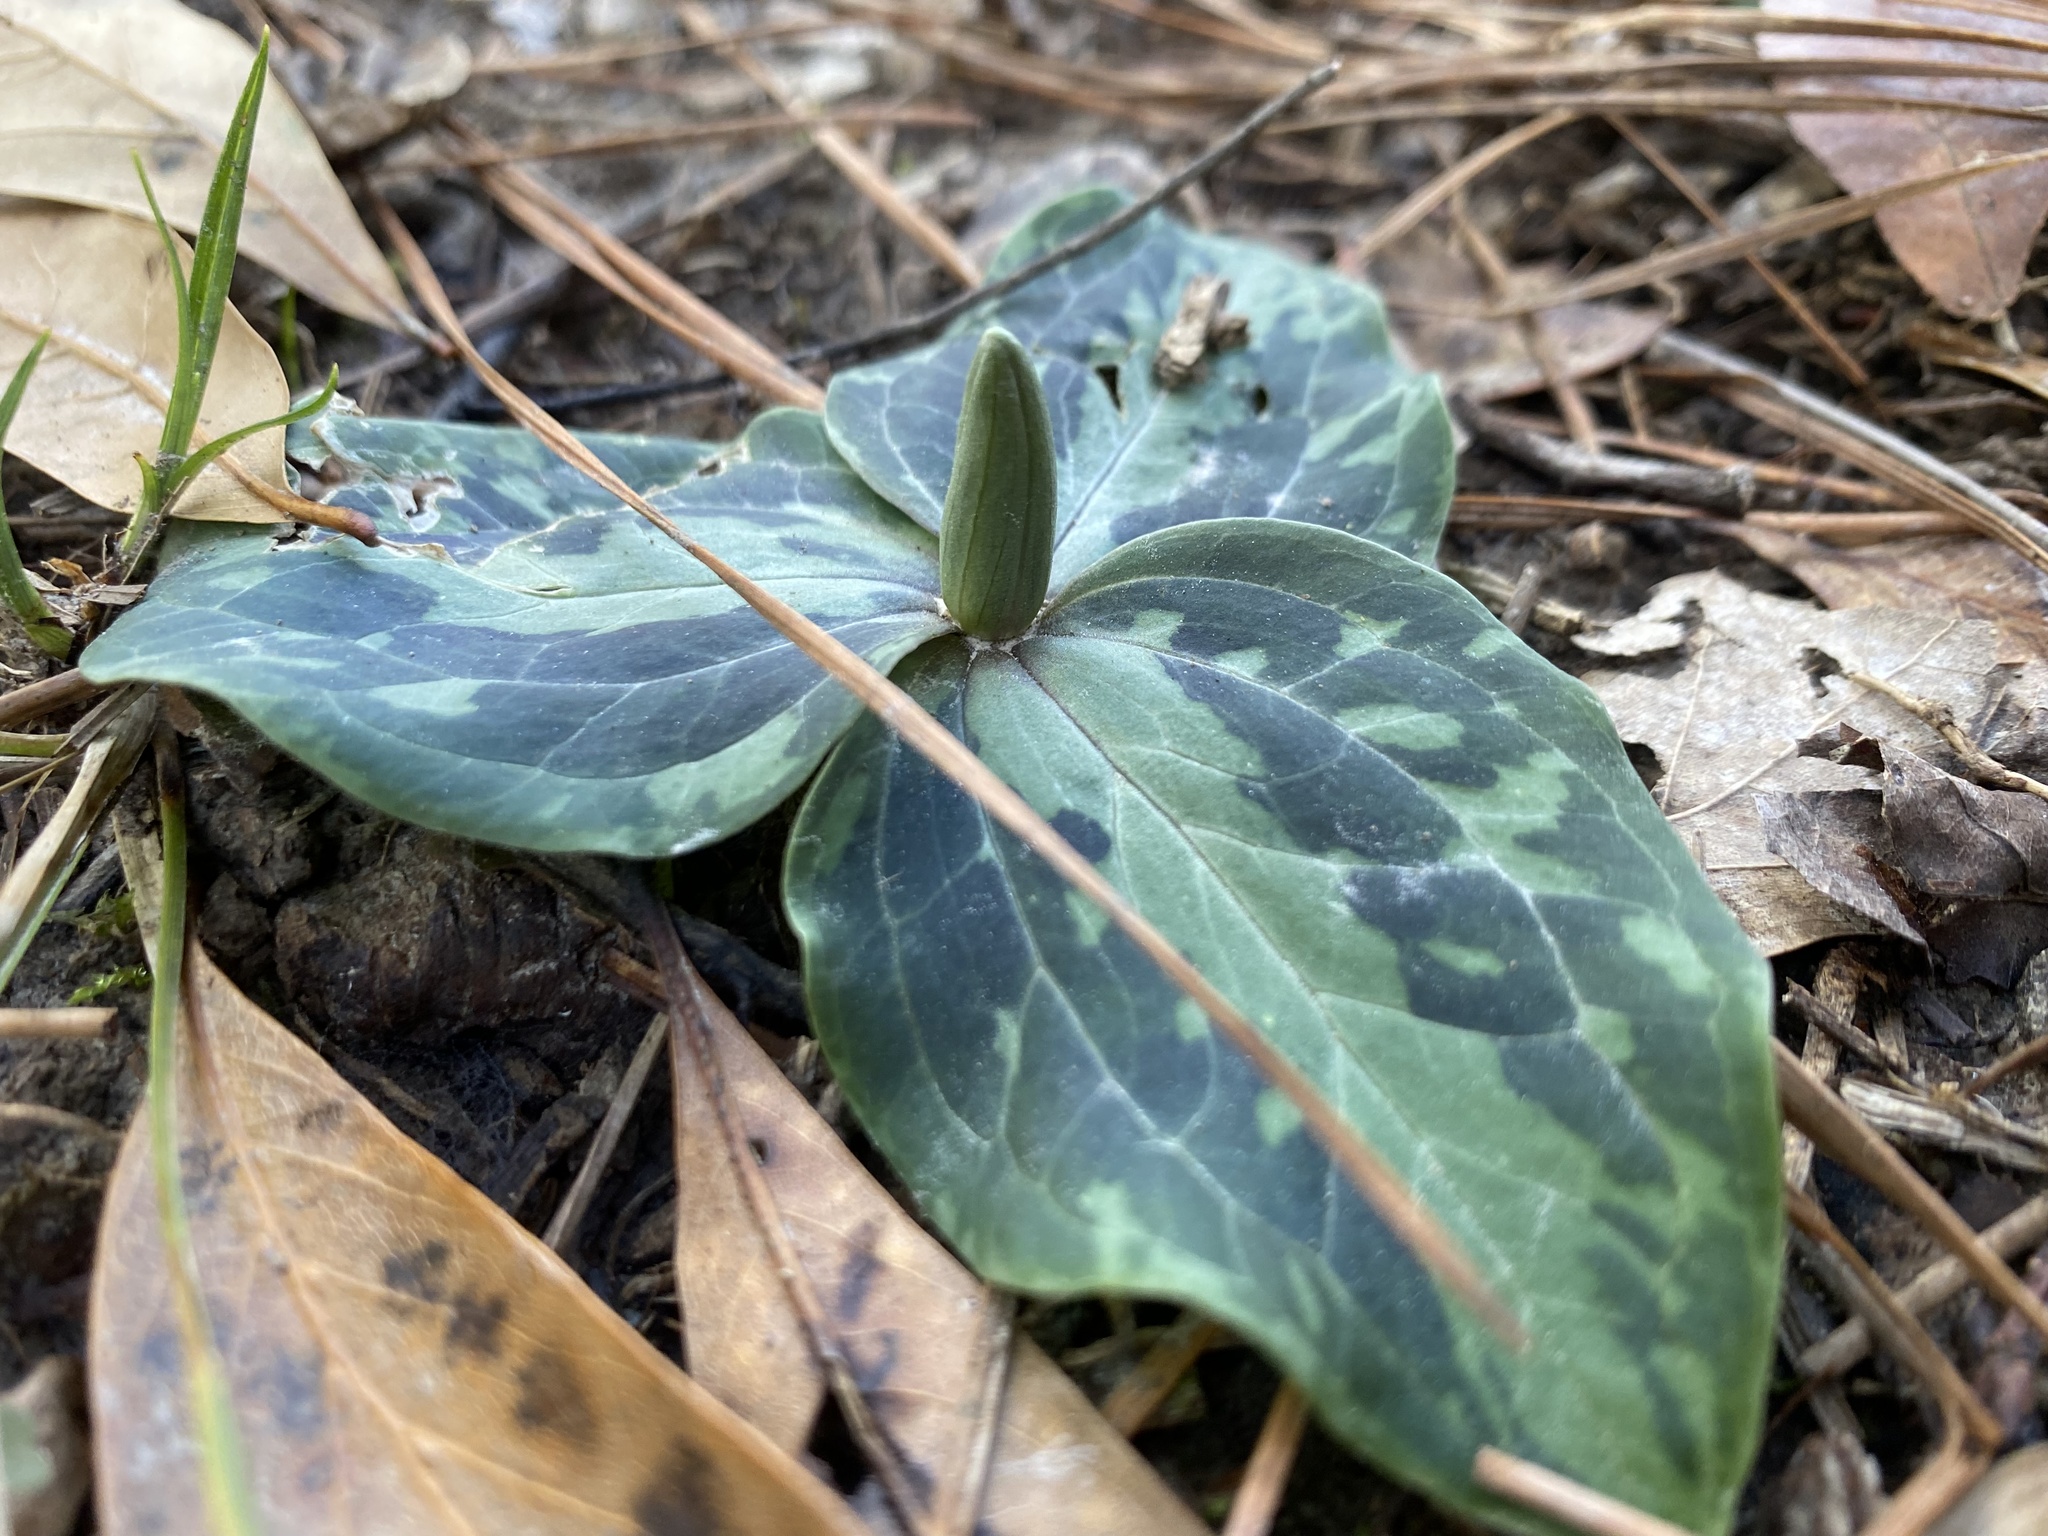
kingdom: Plantae
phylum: Tracheophyta
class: Liliopsida
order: Liliales
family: Melanthiaceae
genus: Trillium
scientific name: Trillium foetidissimum
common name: Mississippi river trillium
